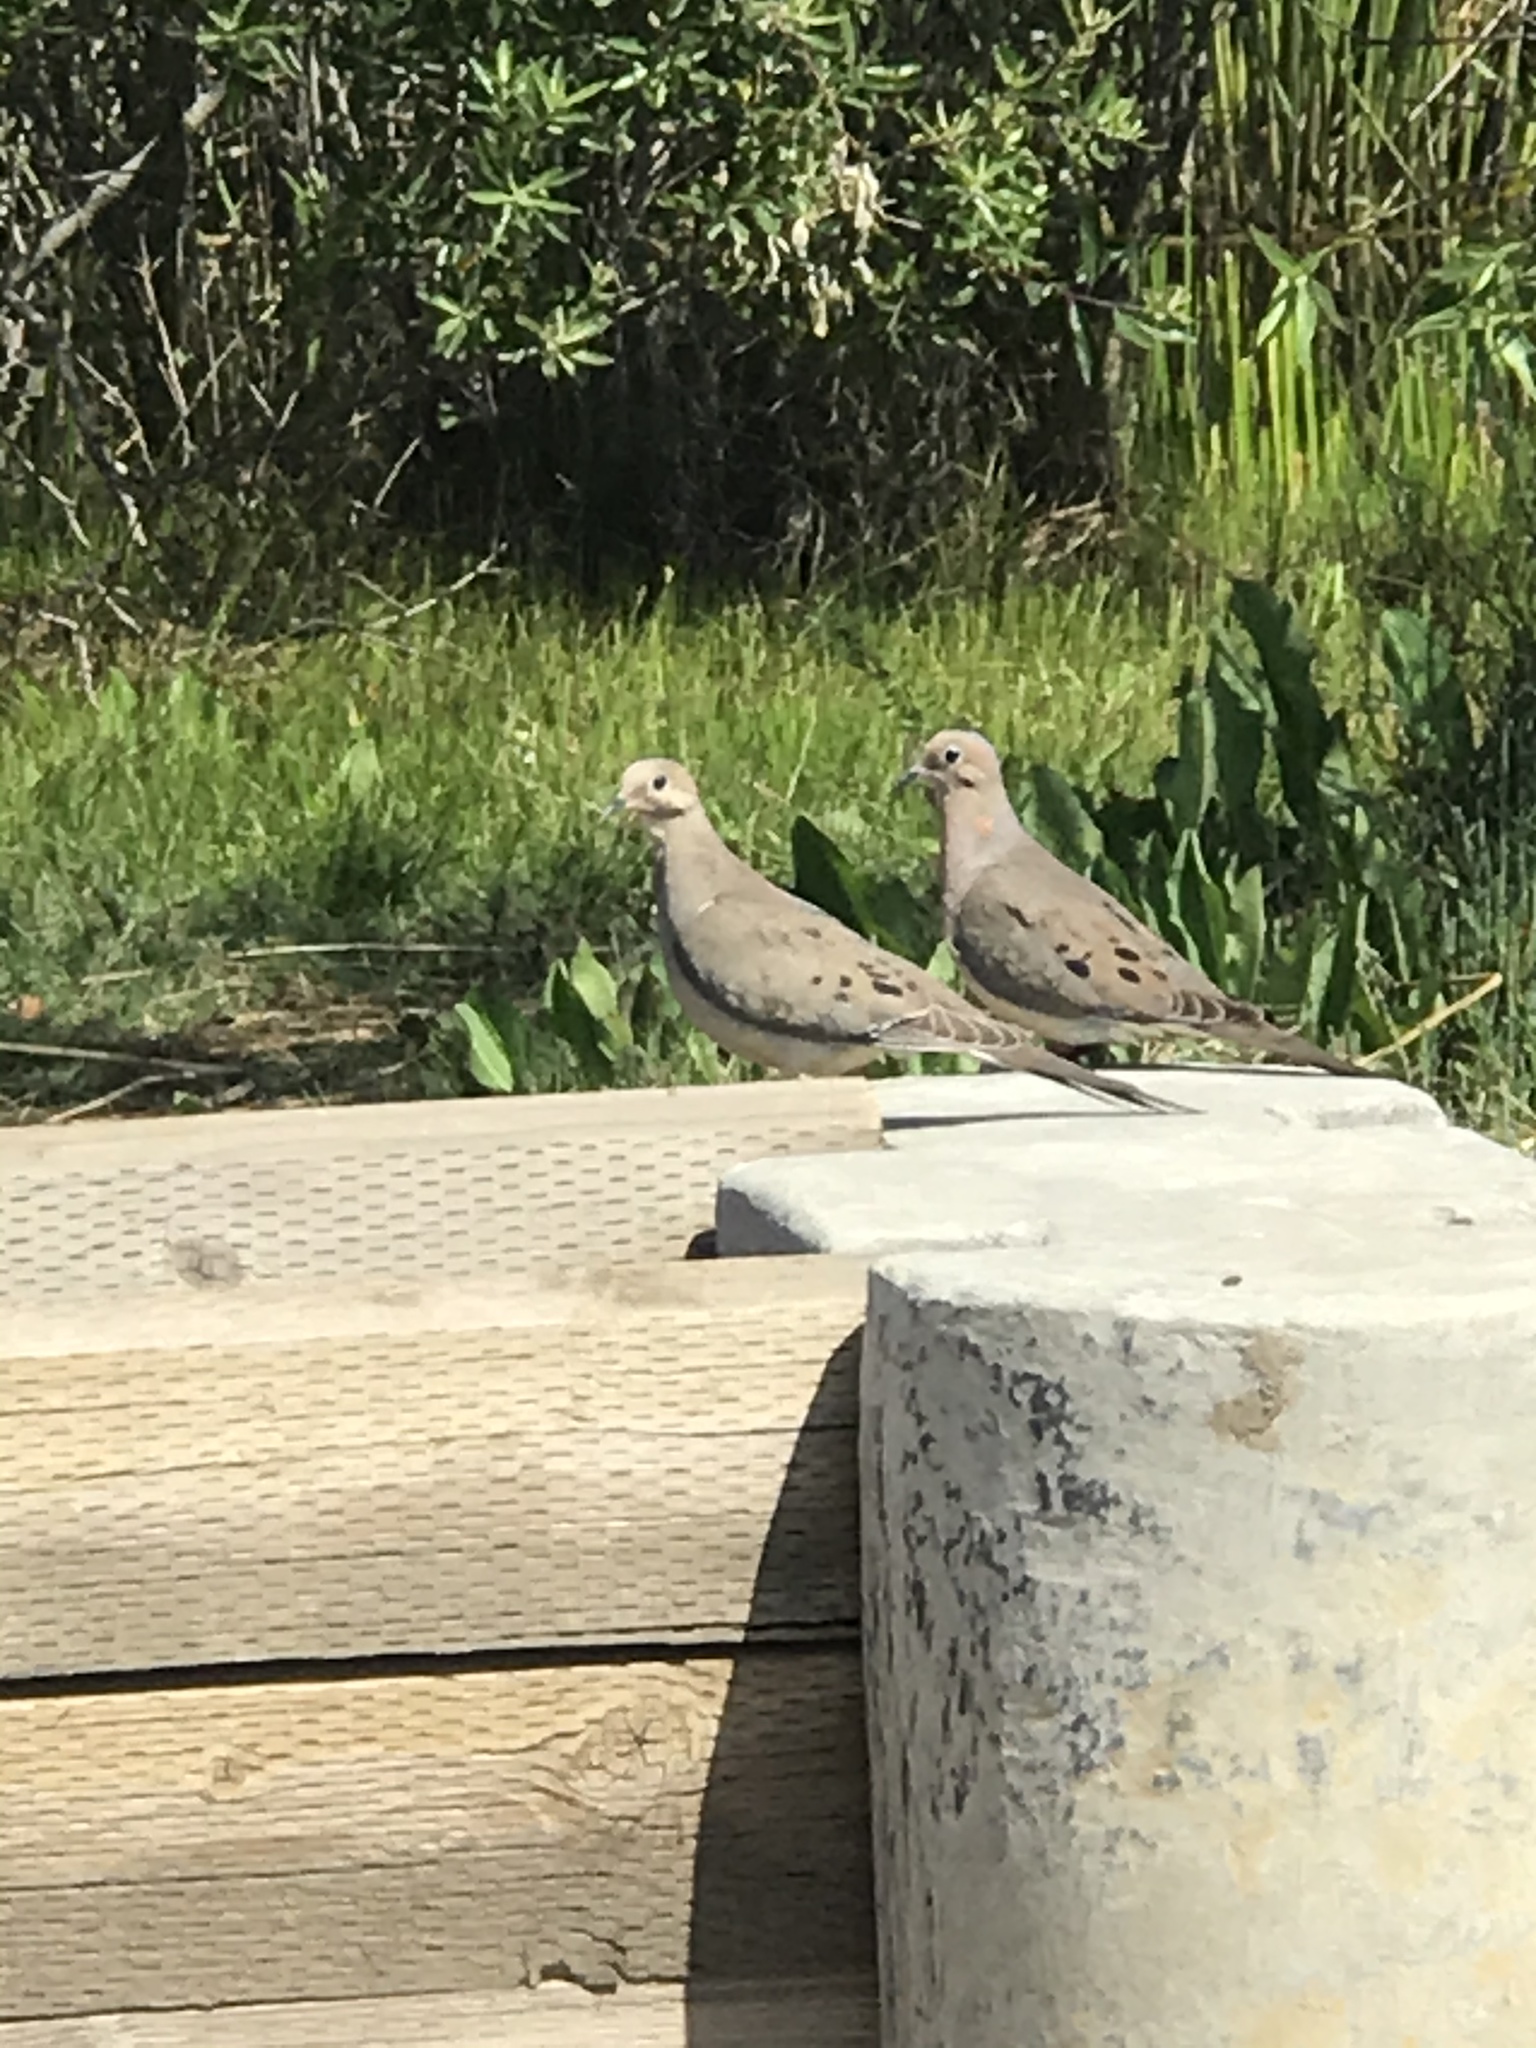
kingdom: Animalia
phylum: Chordata
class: Aves
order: Columbiformes
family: Columbidae
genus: Zenaida
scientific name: Zenaida macroura
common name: Mourning dove
